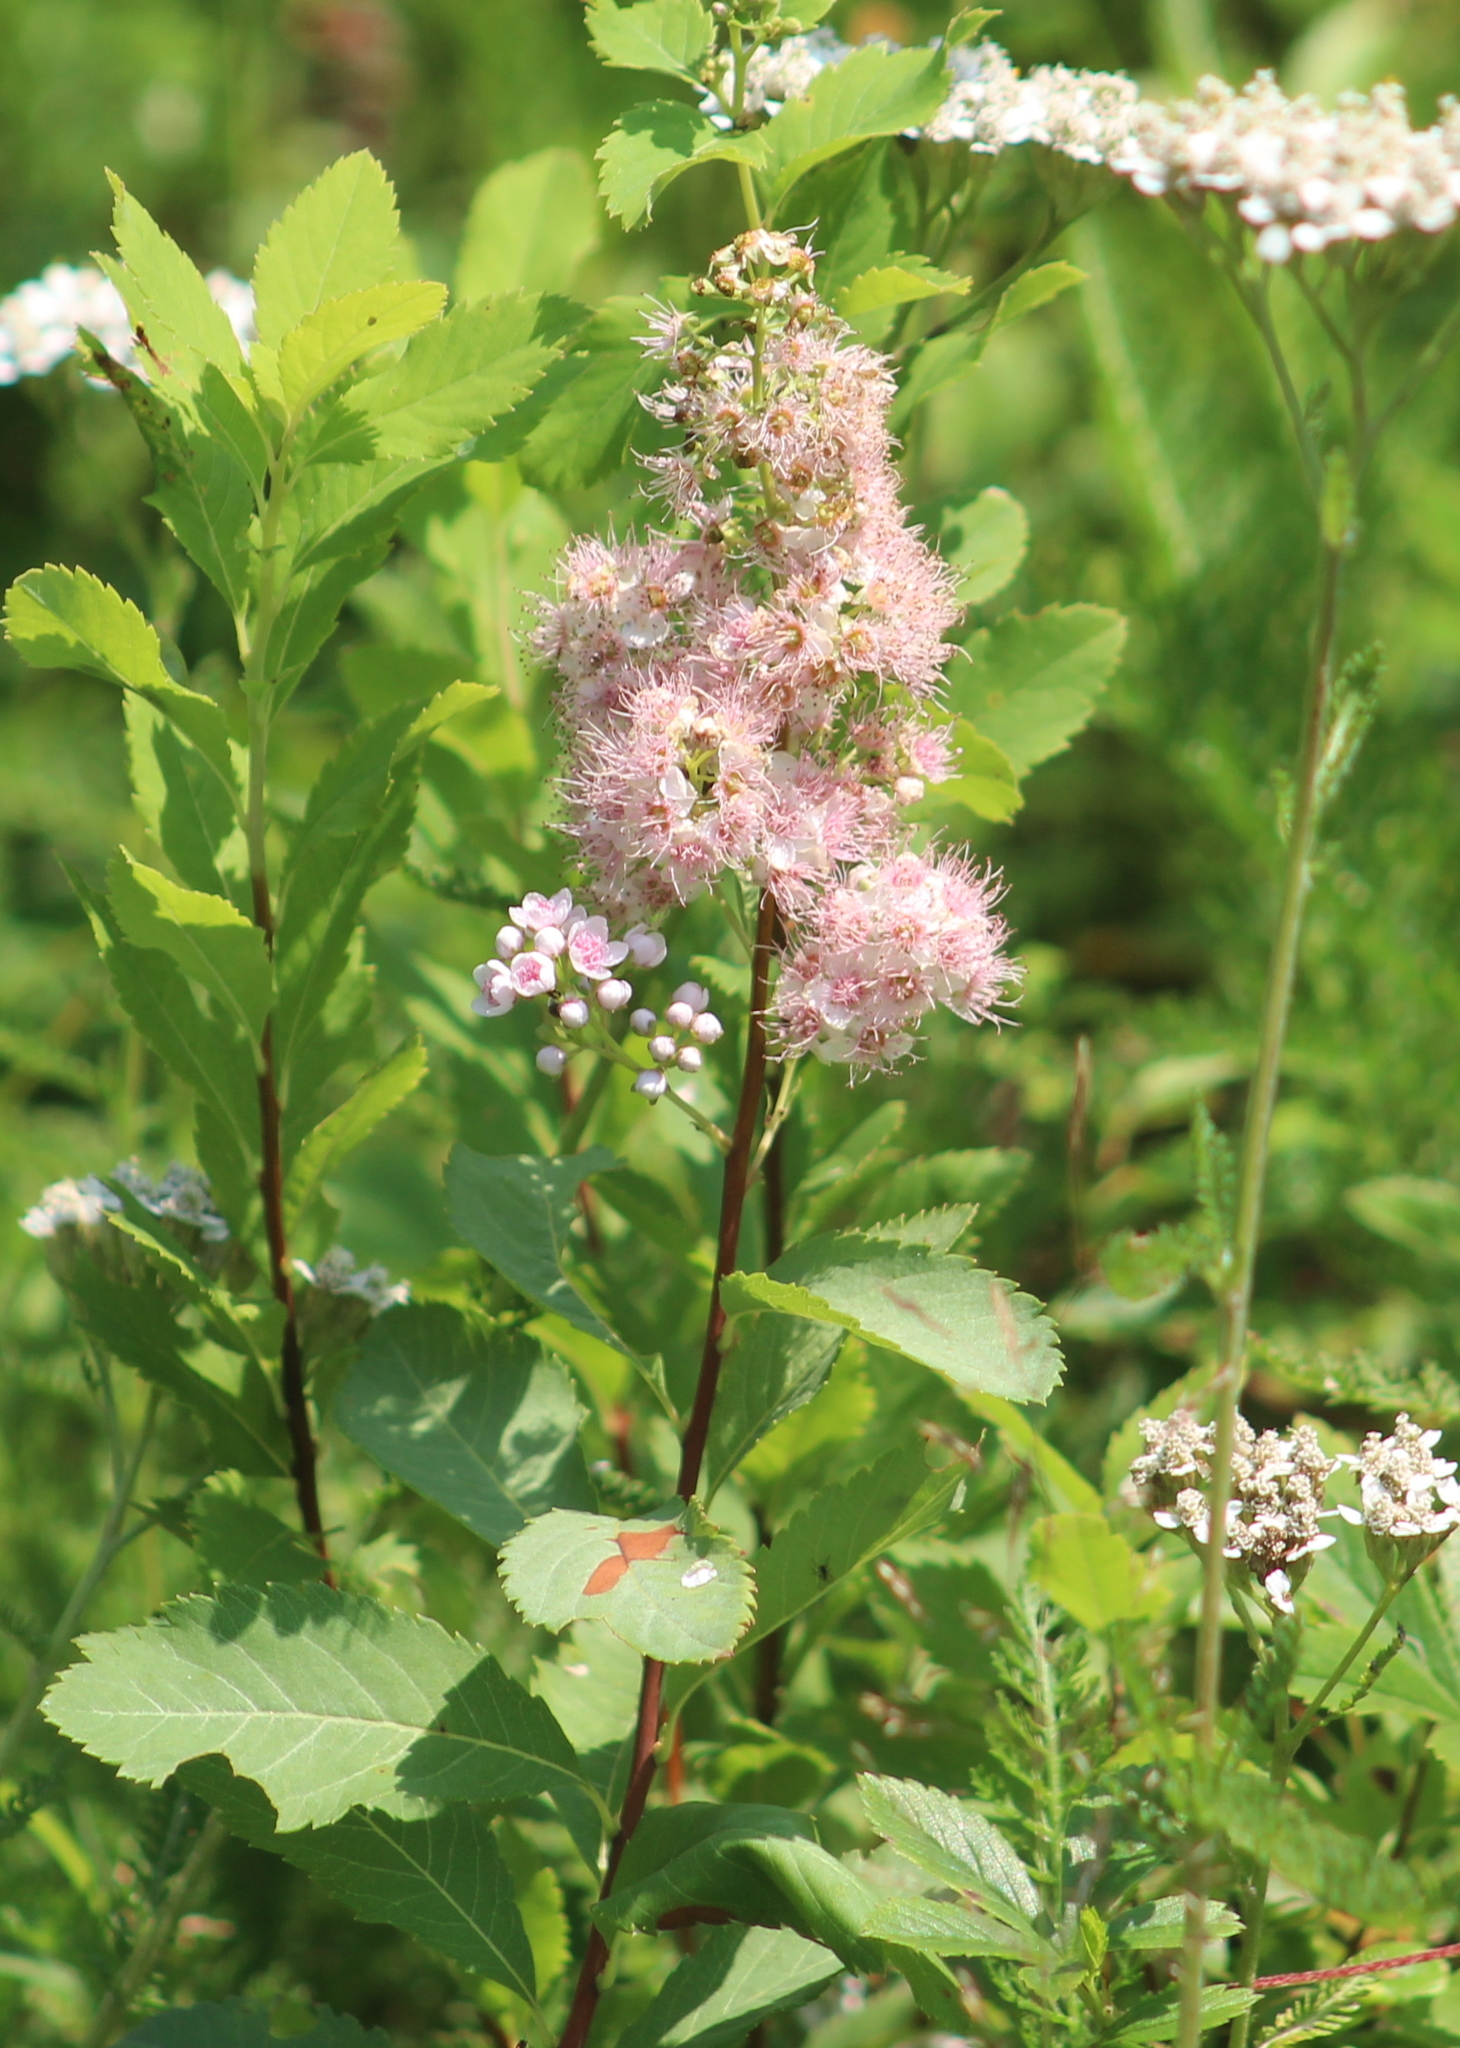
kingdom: Plantae
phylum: Tracheophyta
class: Magnoliopsida
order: Rosales
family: Rosaceae
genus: Spiraea
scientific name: Spiraea alba
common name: Pale bridewort
